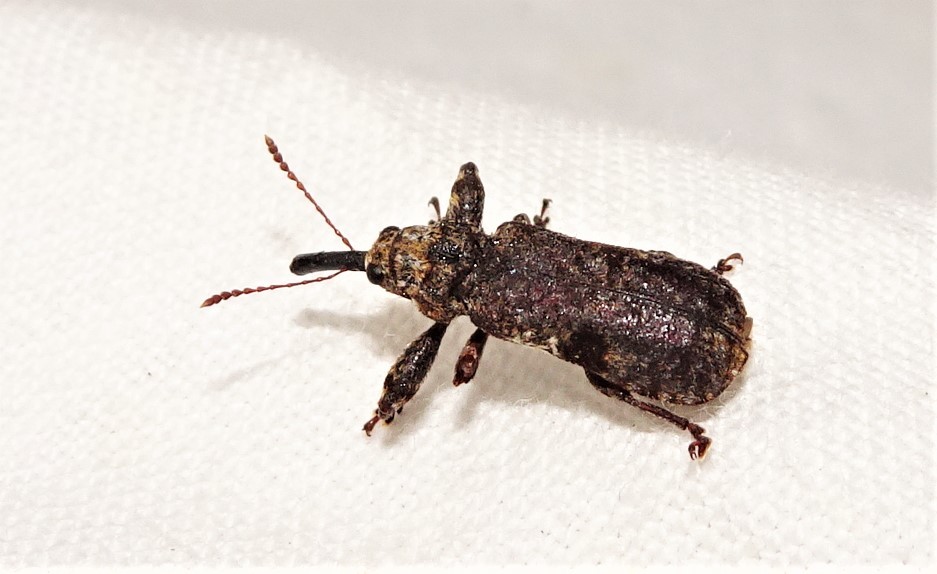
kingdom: Animalia
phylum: Arthropoda
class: Insecta
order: Coleoptera
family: Belidae
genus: Rhinotia
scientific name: Rhinotia dermestiventris
